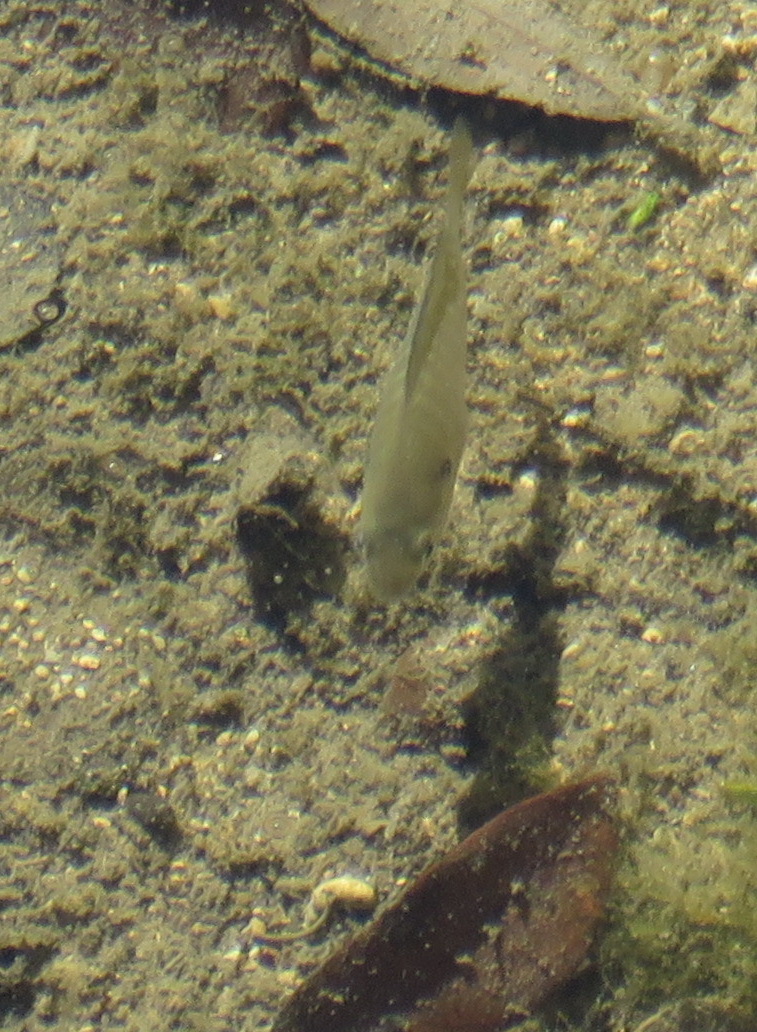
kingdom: Animalia
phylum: Chordata
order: Perciformes
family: Centrarchidae
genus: Lepomis
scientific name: Lepomis
